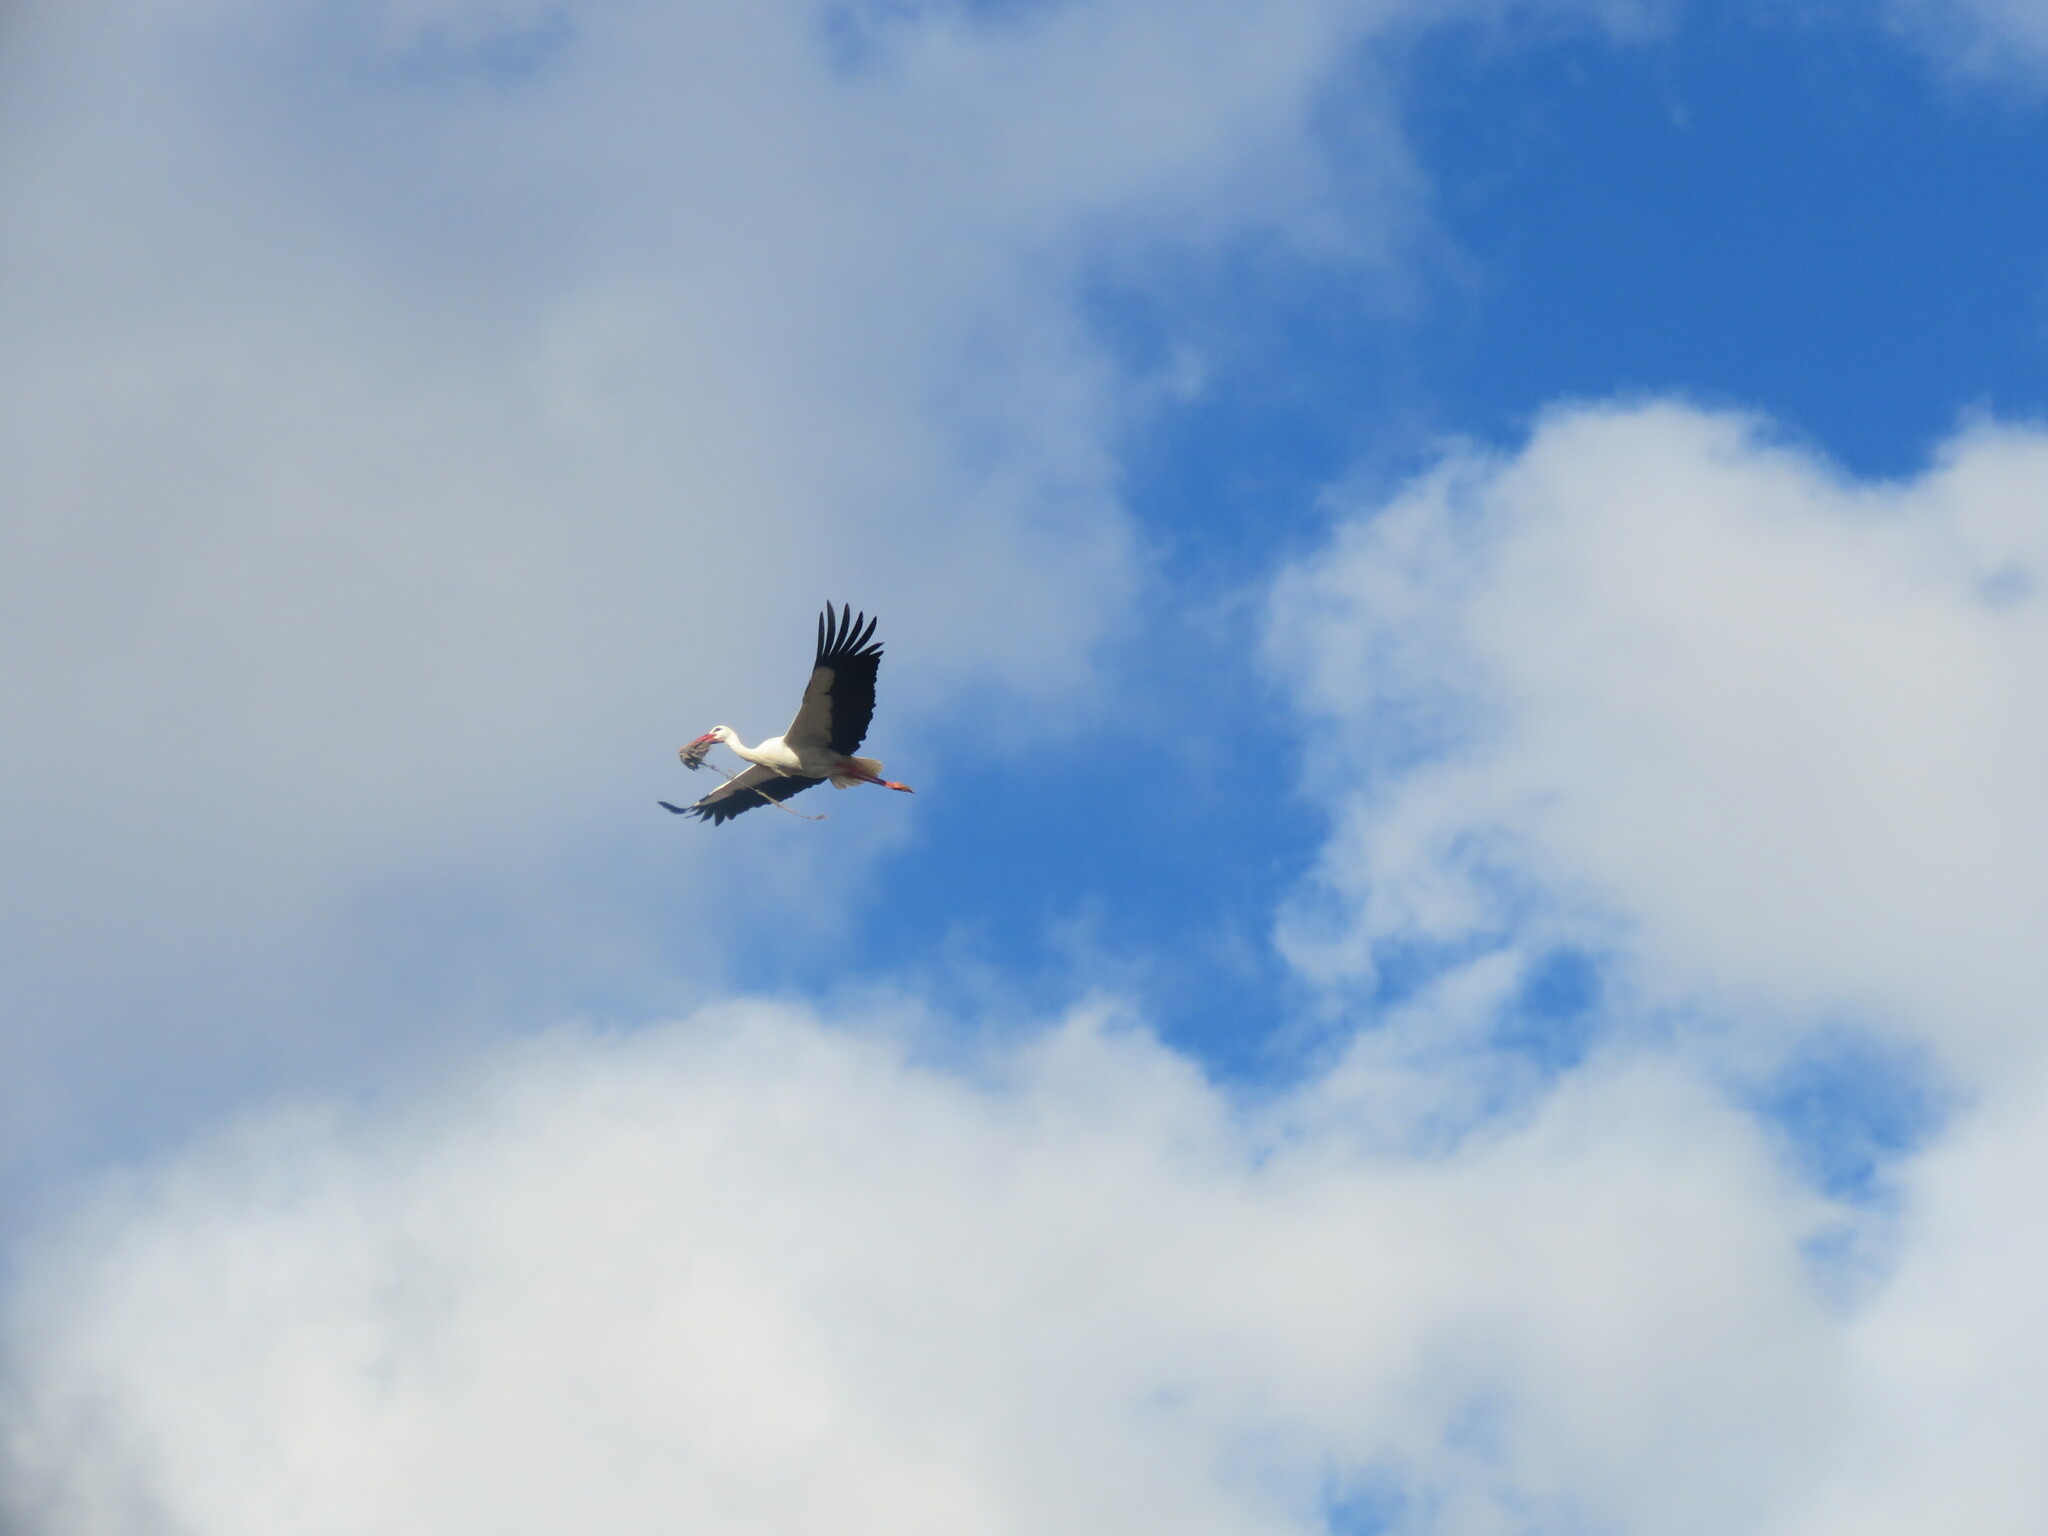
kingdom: Animalia
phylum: Chordata
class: Aves
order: Ciconiiformes
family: Ciconiidae
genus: Ciconia
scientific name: Ciconia ciconia
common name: White stork
